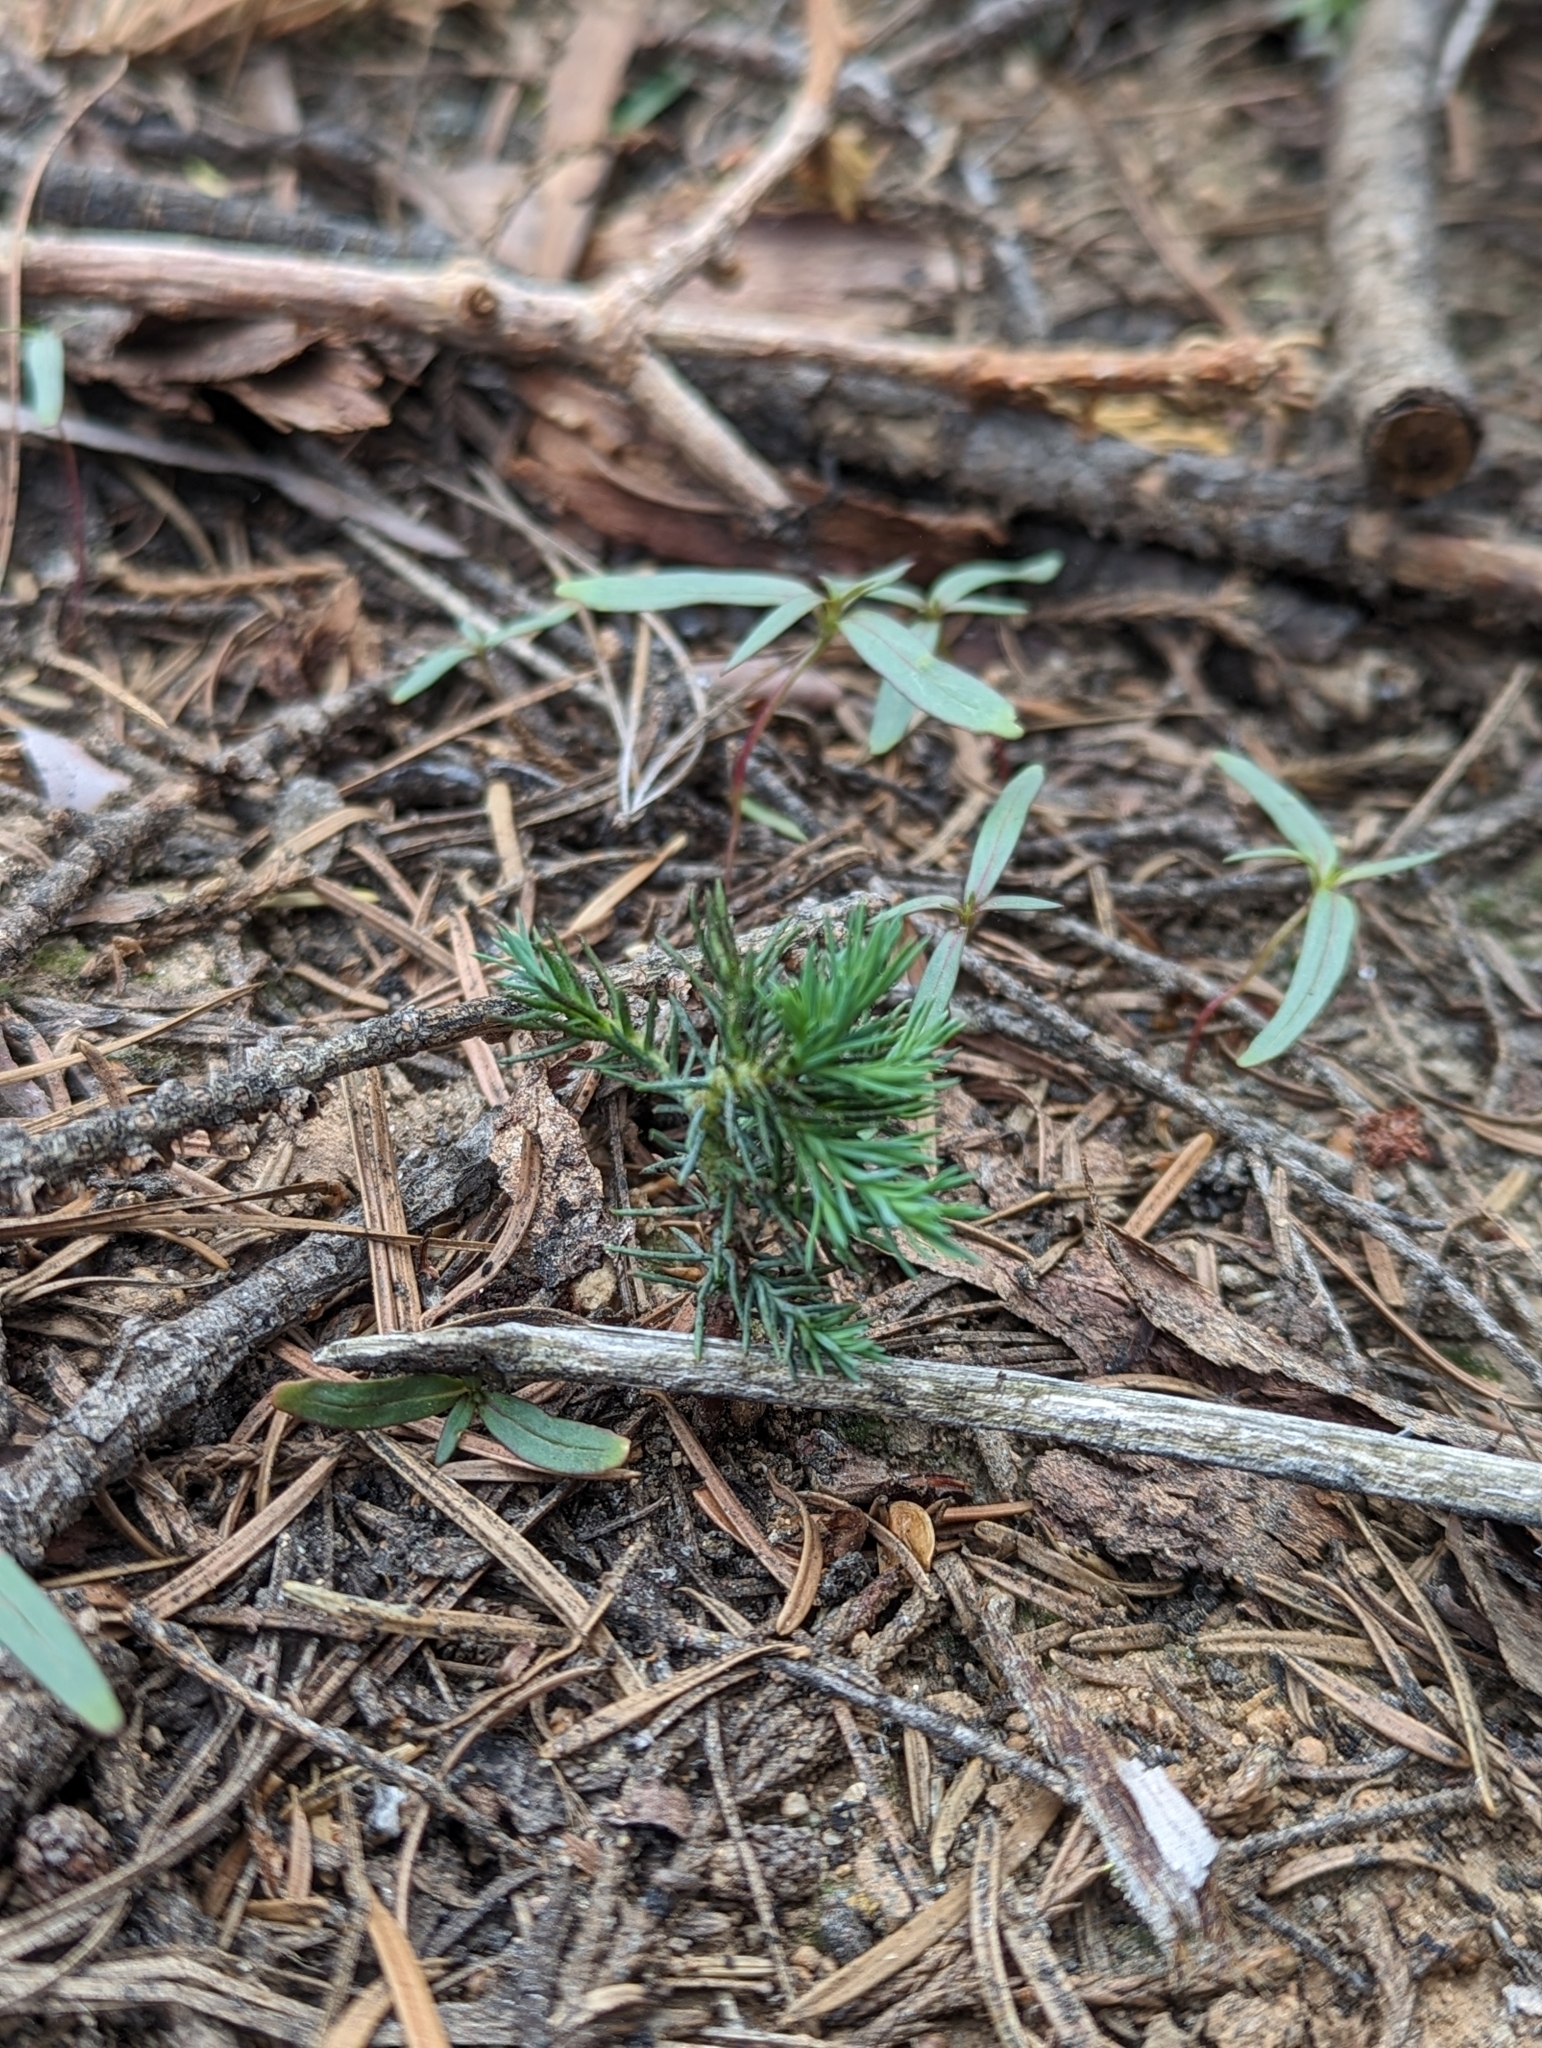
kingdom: Plantae
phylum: Tracheophyta
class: Pinopsida
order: Pinales
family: Cupressaceae
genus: Sequoiadendron
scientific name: Sequoiadendron giganteum
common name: Wellingtonia
